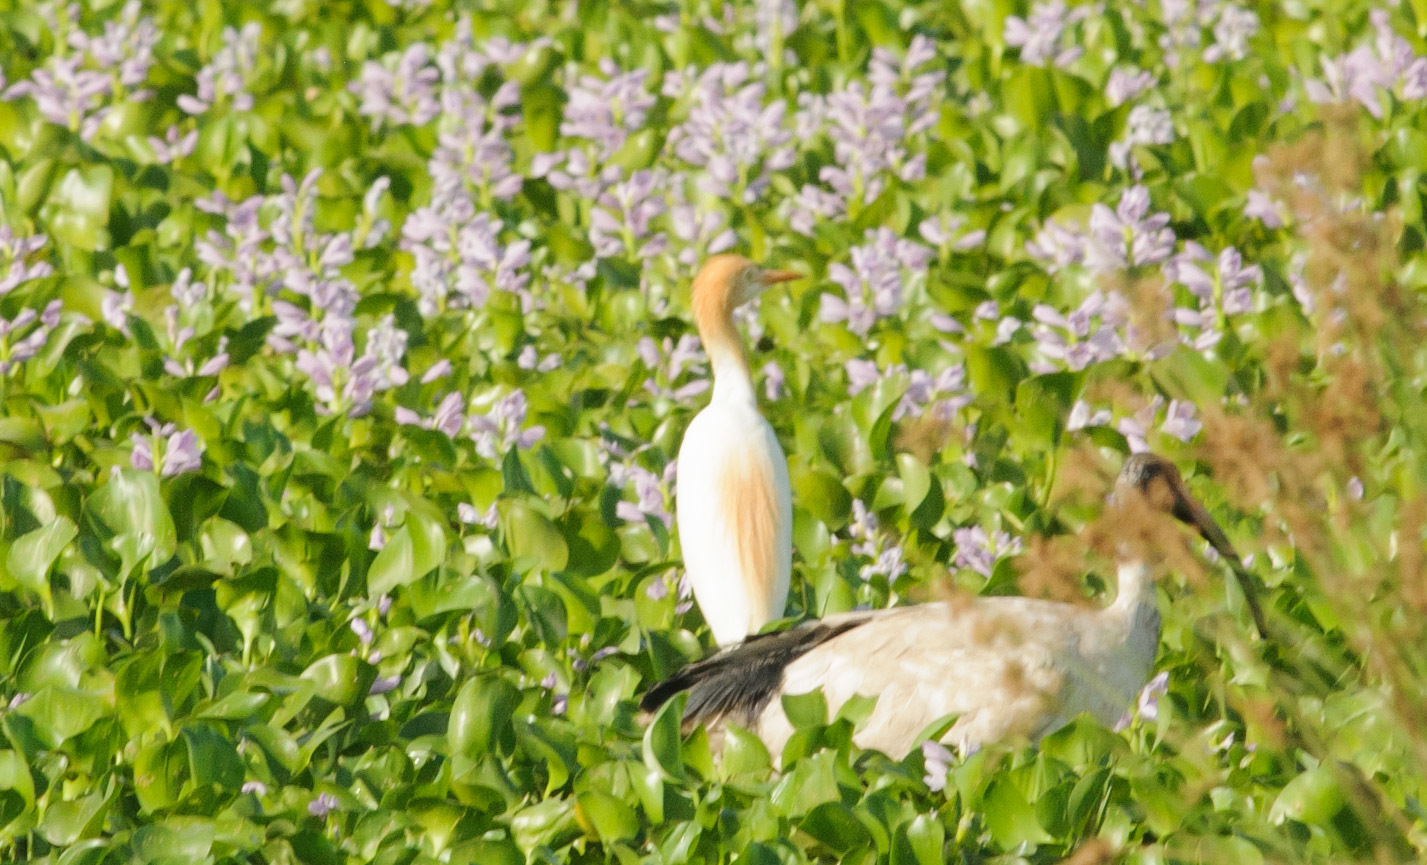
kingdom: Animalia
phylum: Chordata
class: Aves
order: Pelecaniformes
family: Ardeidae
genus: Bubulcus
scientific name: Bubulcus coromandus
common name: Eastern cattle egret
